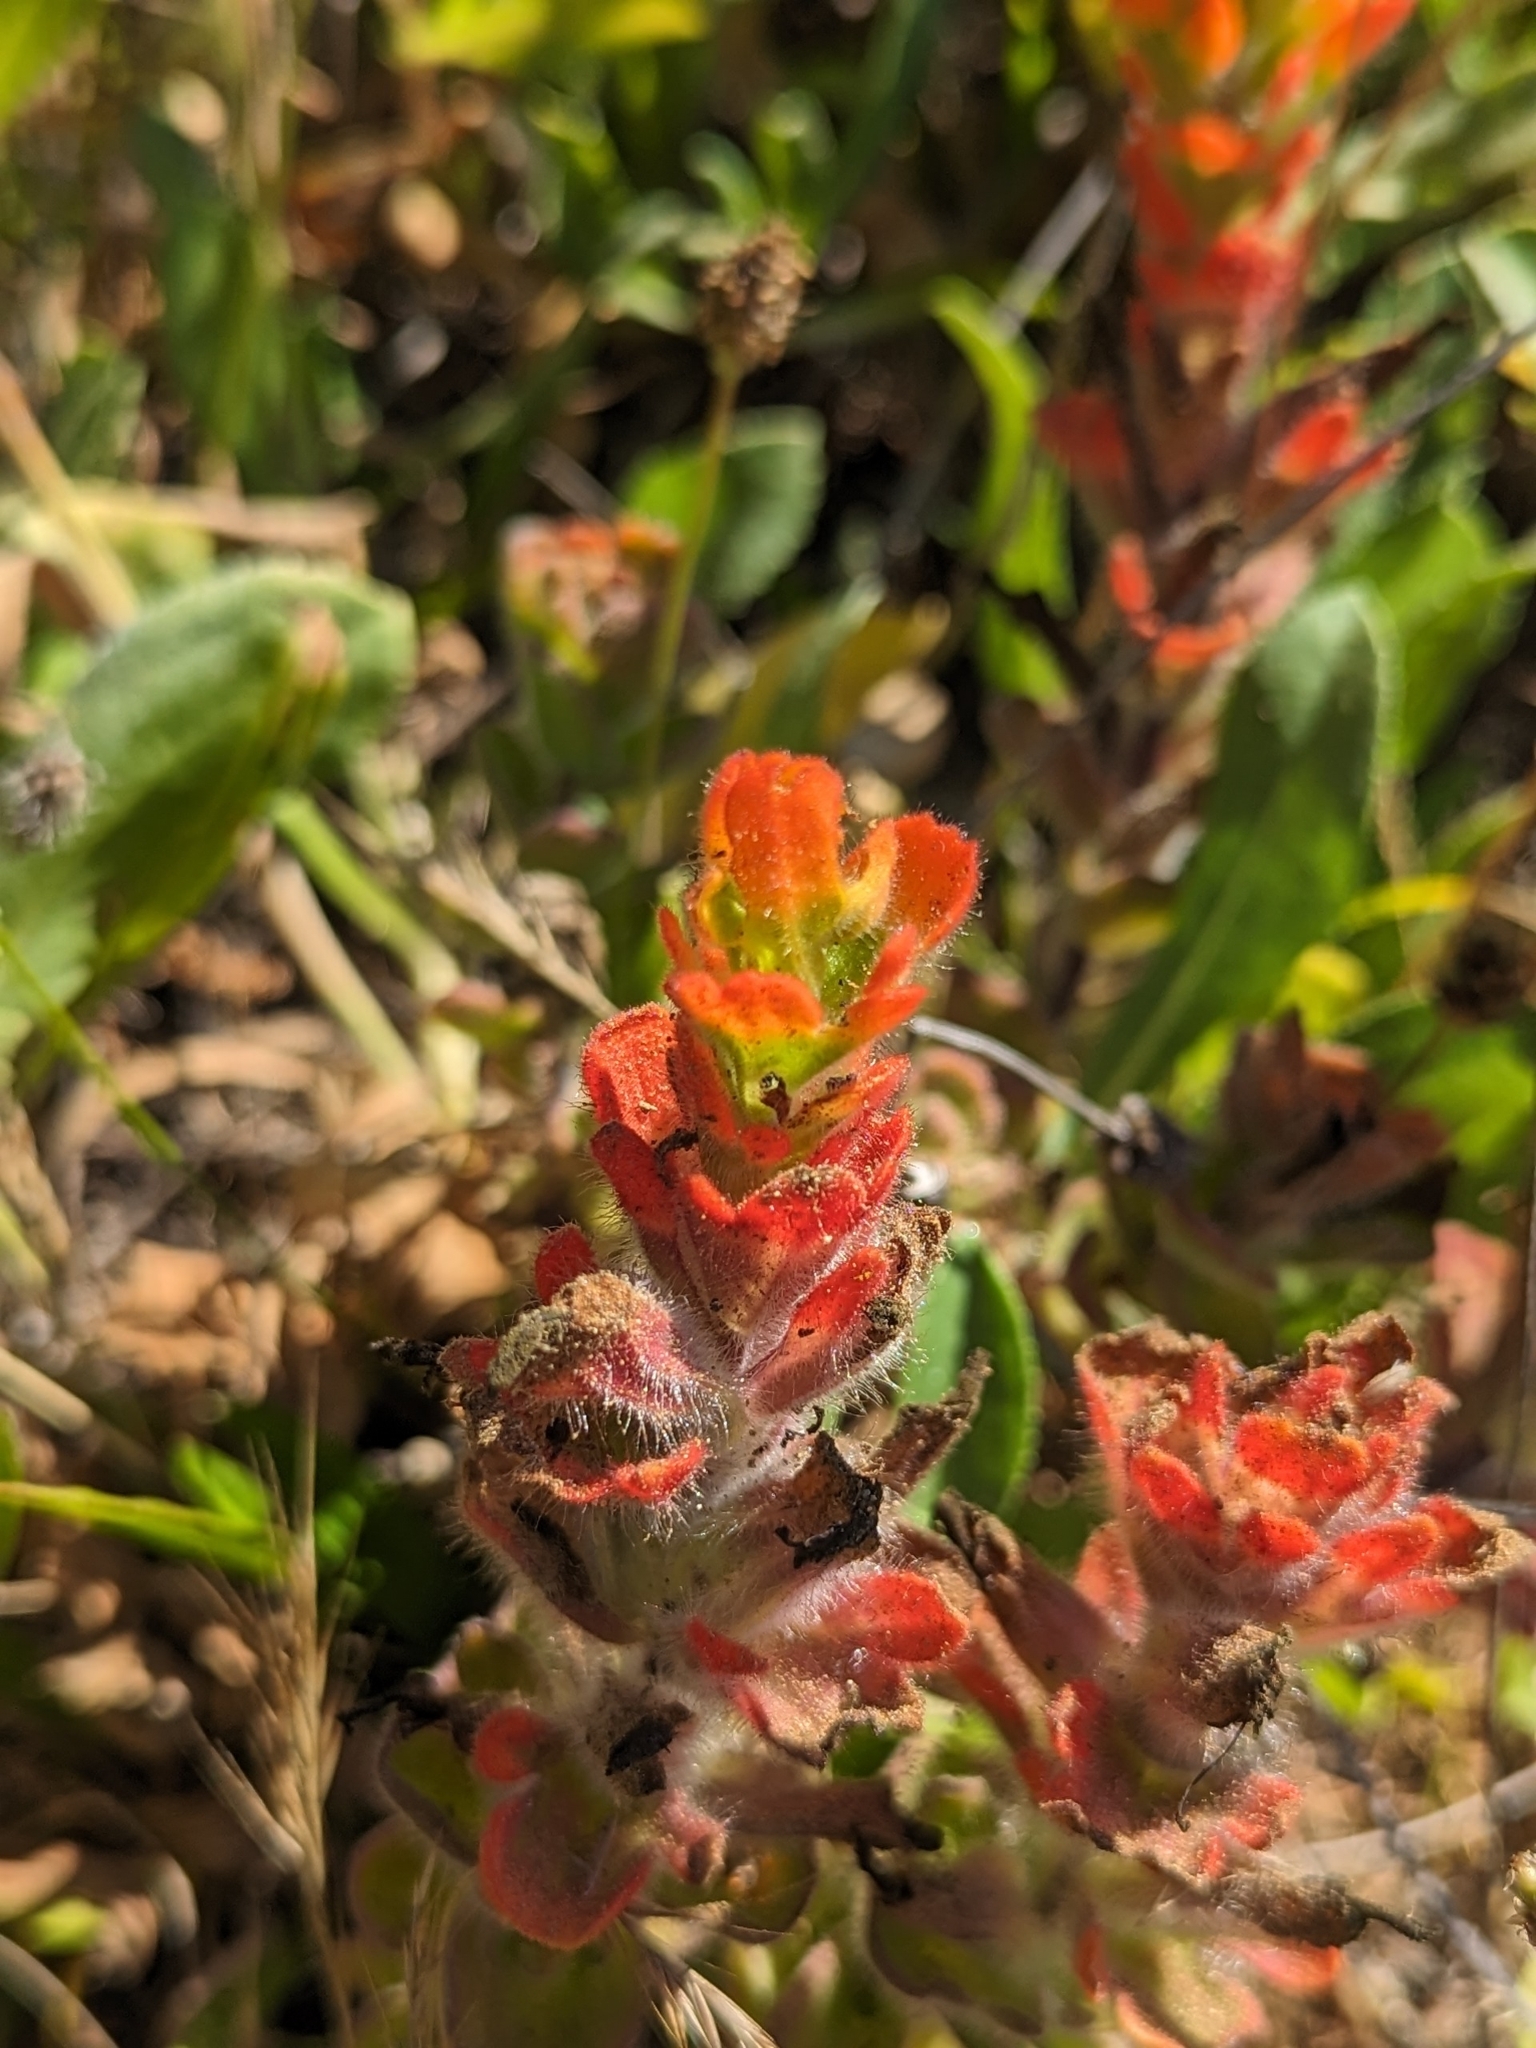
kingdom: Plantae
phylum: Tracheophyta
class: Magnoliopsida
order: Lamiales
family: Orobanchaceae
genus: Castilleja
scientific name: Castilleja mendocinensis
